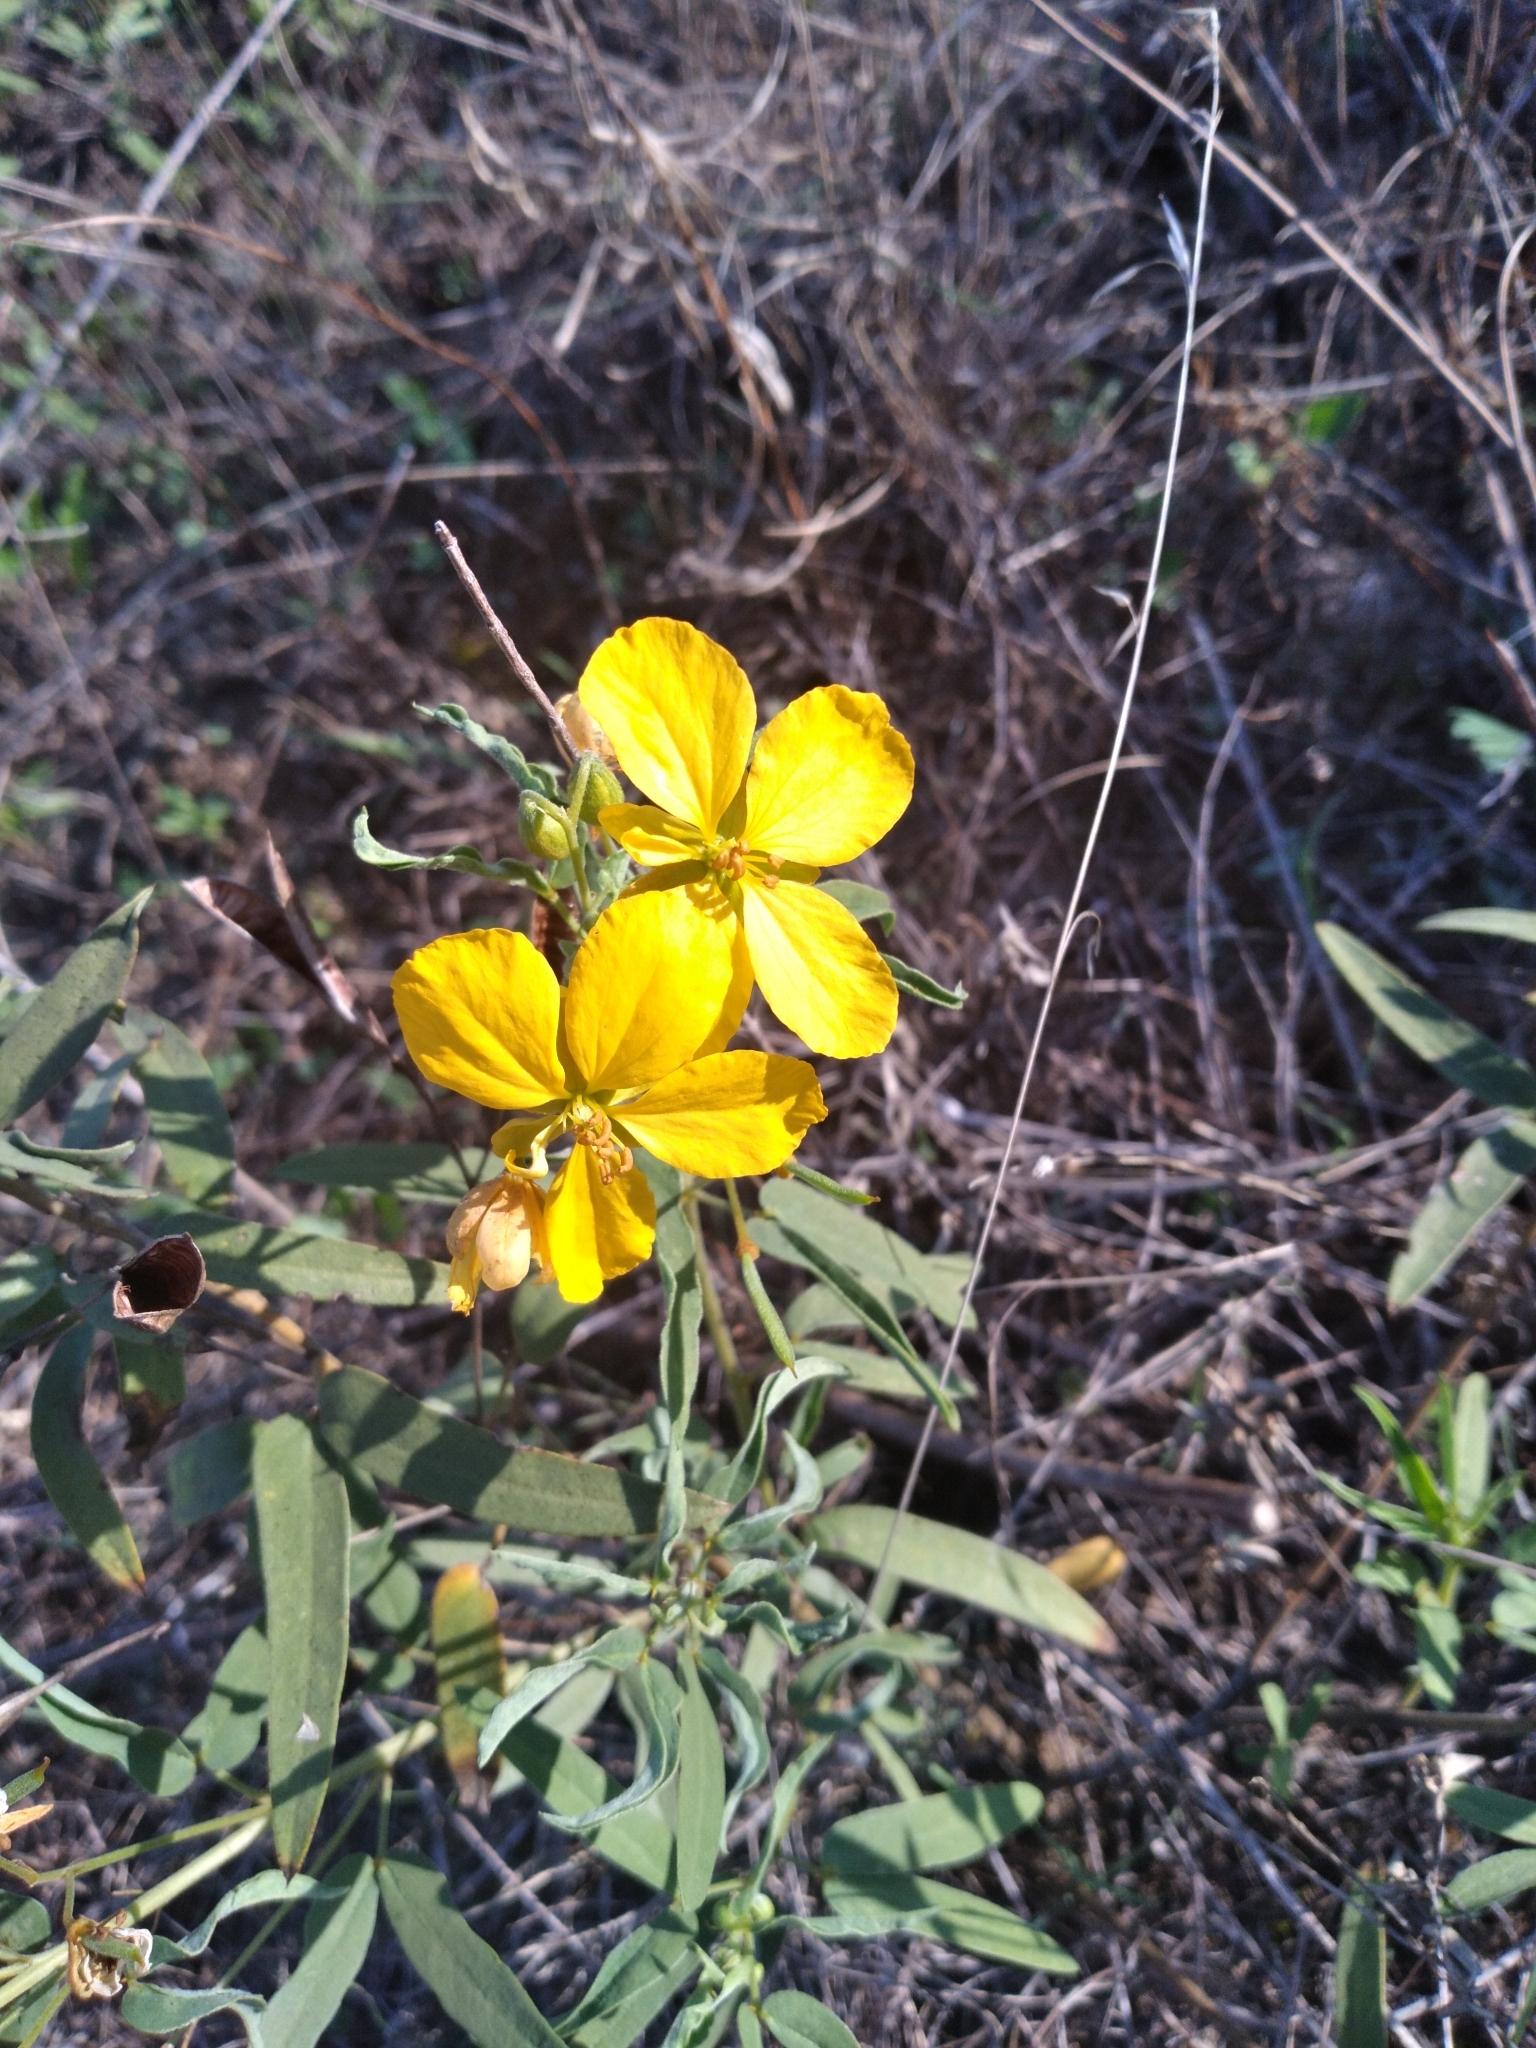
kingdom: Plantae
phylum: Tracheophyta
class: Magnoliopsida
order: Fabales
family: Fabaceae
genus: Senna
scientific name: Senna roemeriana
